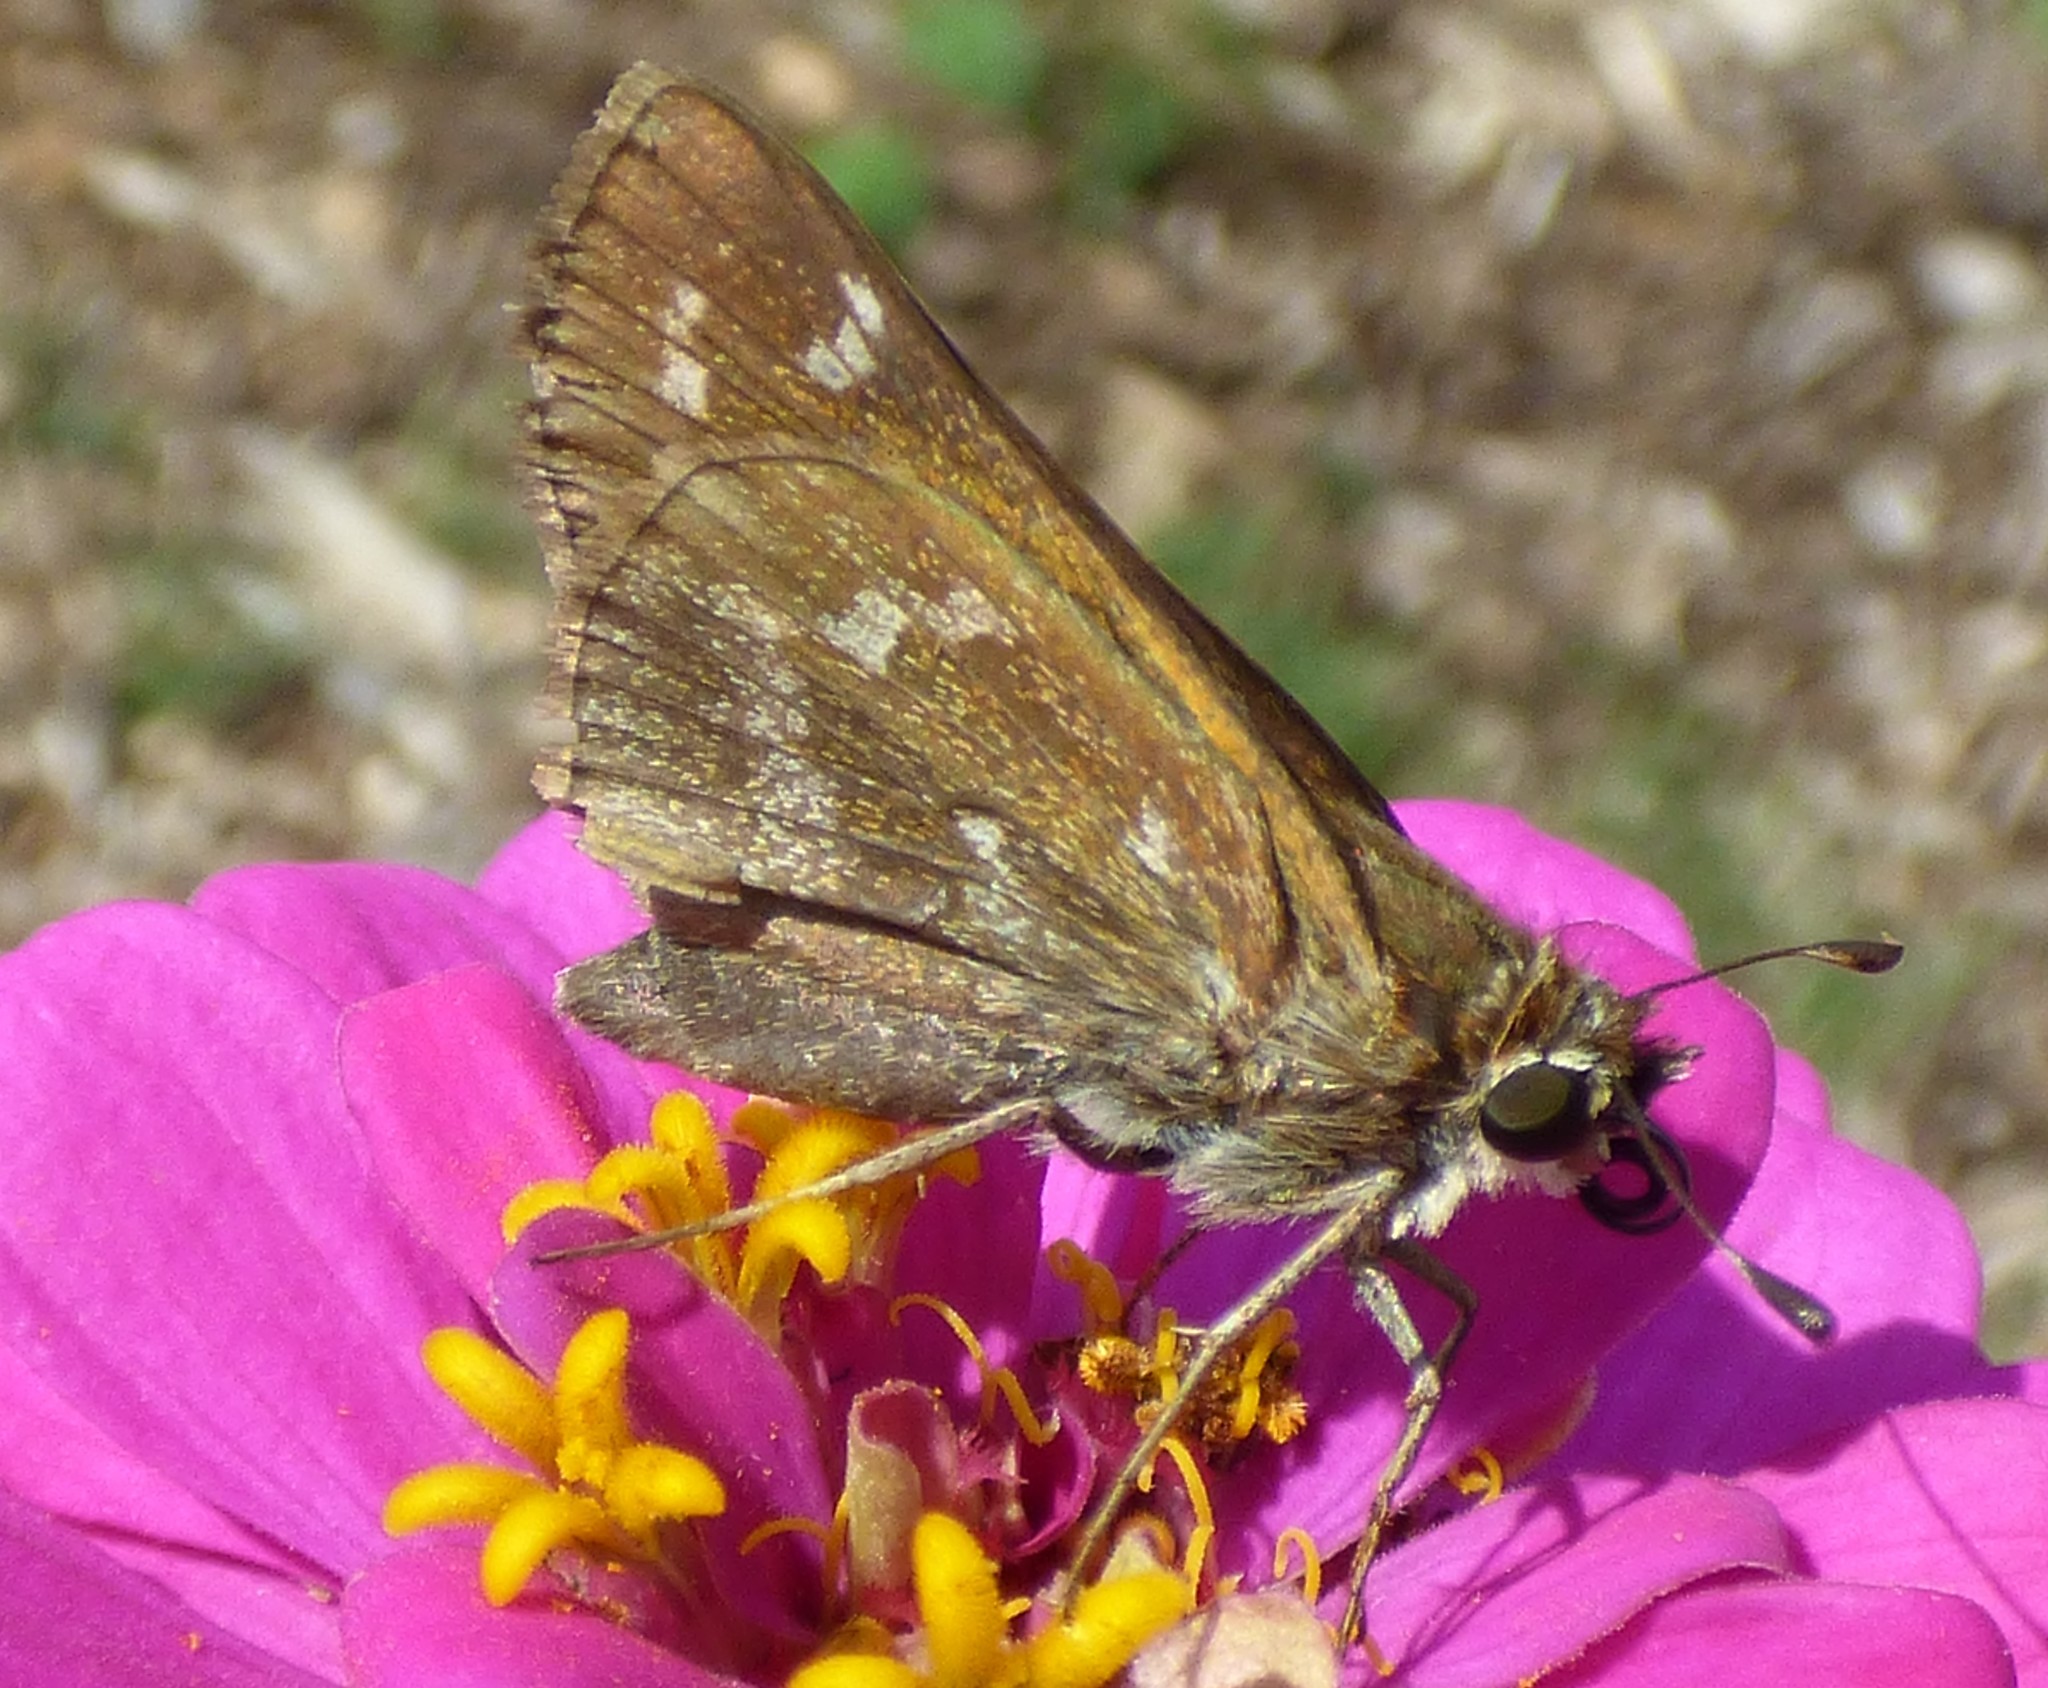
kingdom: Animalia
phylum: Arthropoda
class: Insecta
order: Lepidoptera
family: Hesperiidae
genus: Atalopedes
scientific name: Atalopedes
